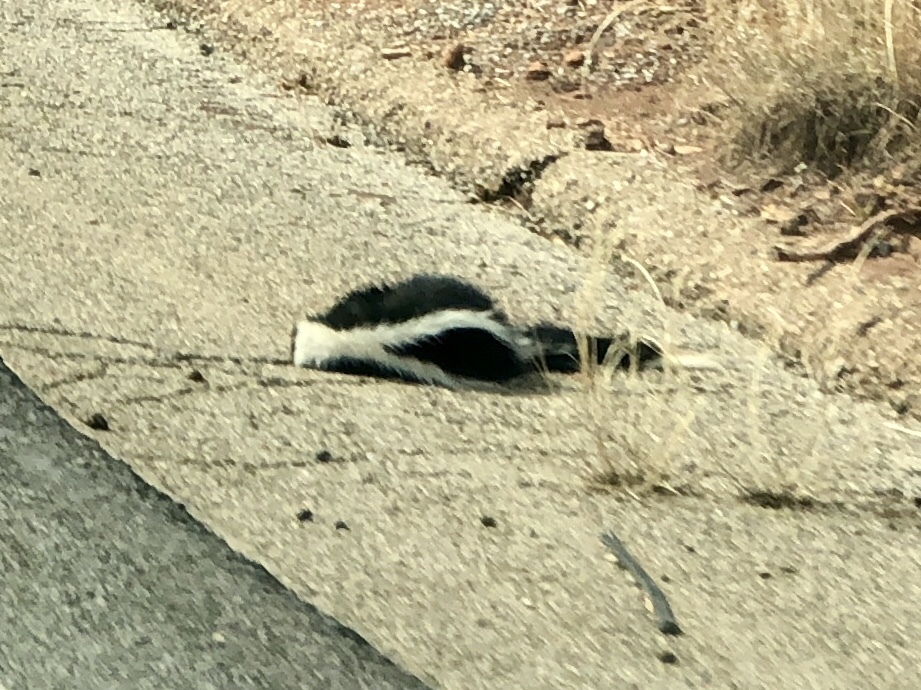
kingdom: Animalia
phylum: Chordata
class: Mammalia
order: Carnivora
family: Mephitidae
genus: Mephitis
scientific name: Mephitis mephitis
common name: Striped skunk
